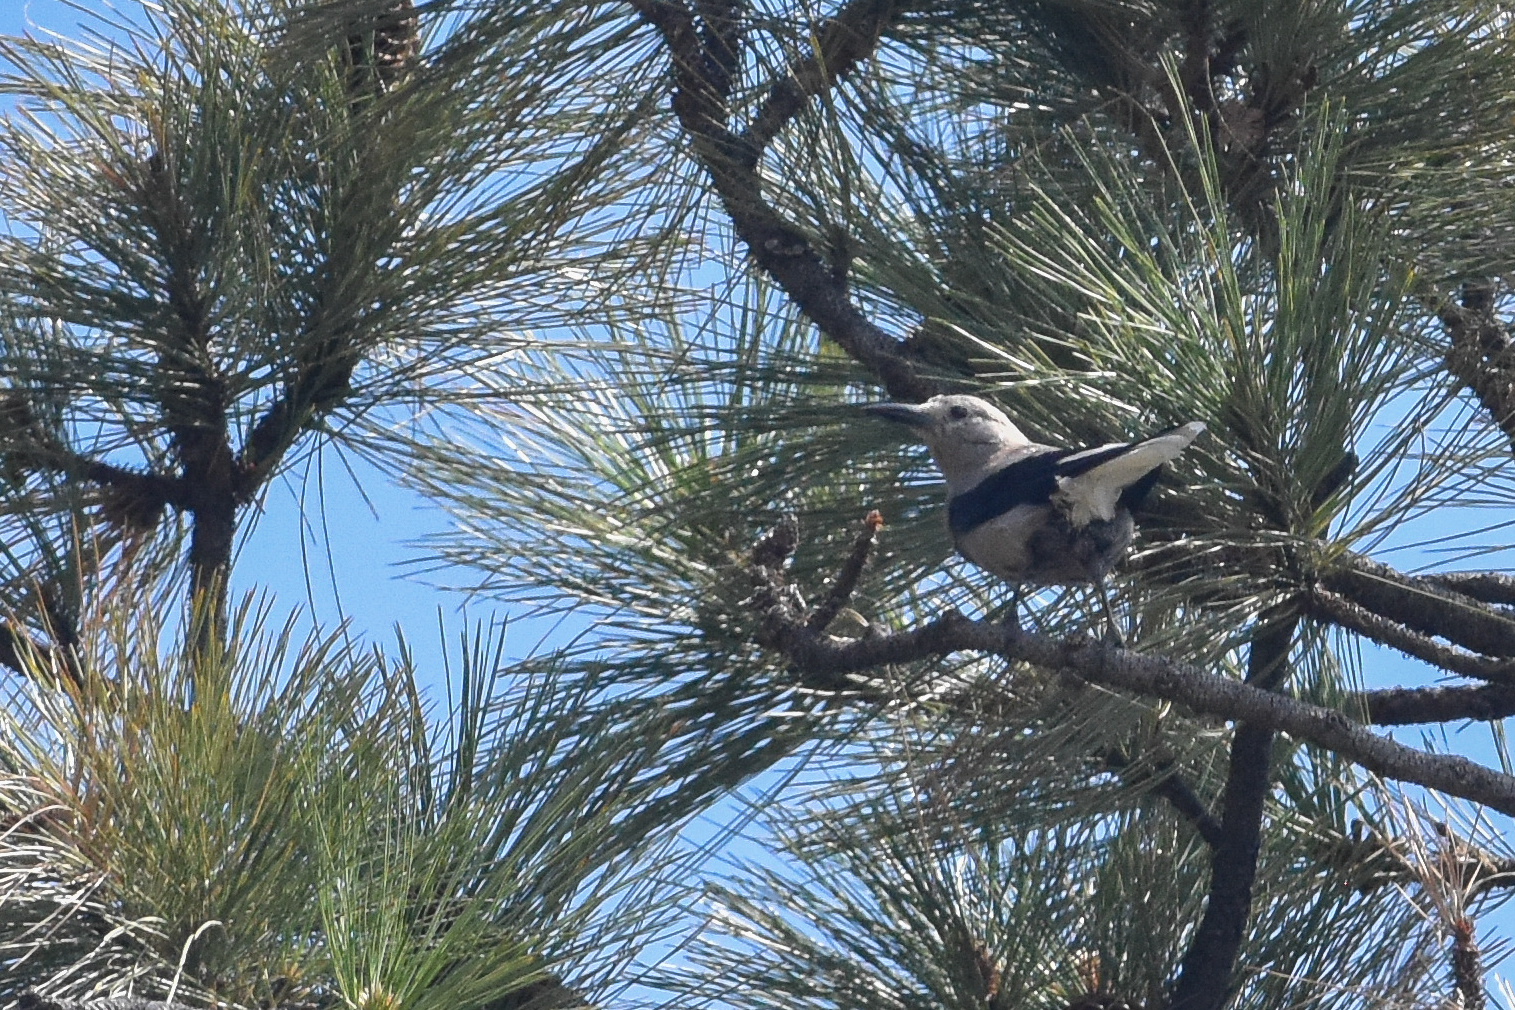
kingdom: Animalia
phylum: Chordata
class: Aves
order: Passeriformes
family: Corvidae
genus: Nucifraga
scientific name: Nucifraga columbiana
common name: Clark's nutcracker
